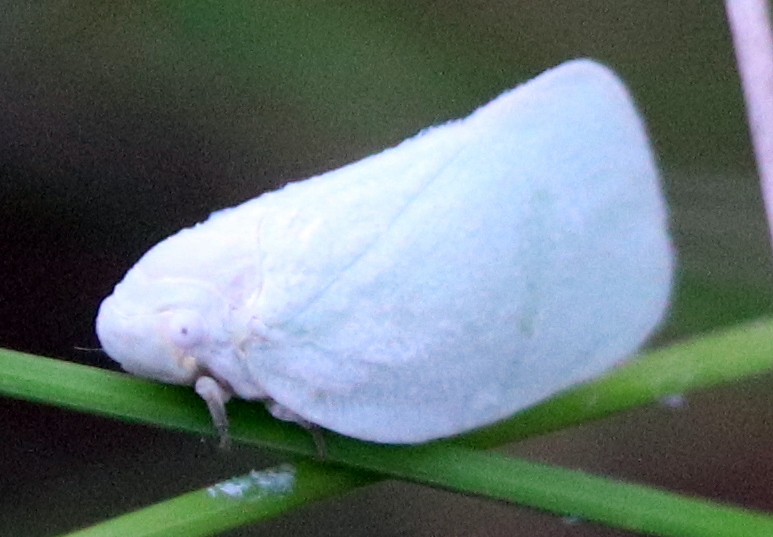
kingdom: Animalia
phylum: Arthropoda
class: Insecta
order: Hemiptera
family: Flatidae
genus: Flatormenis
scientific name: Flatormenis proxima
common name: Northern flatid planthopper
